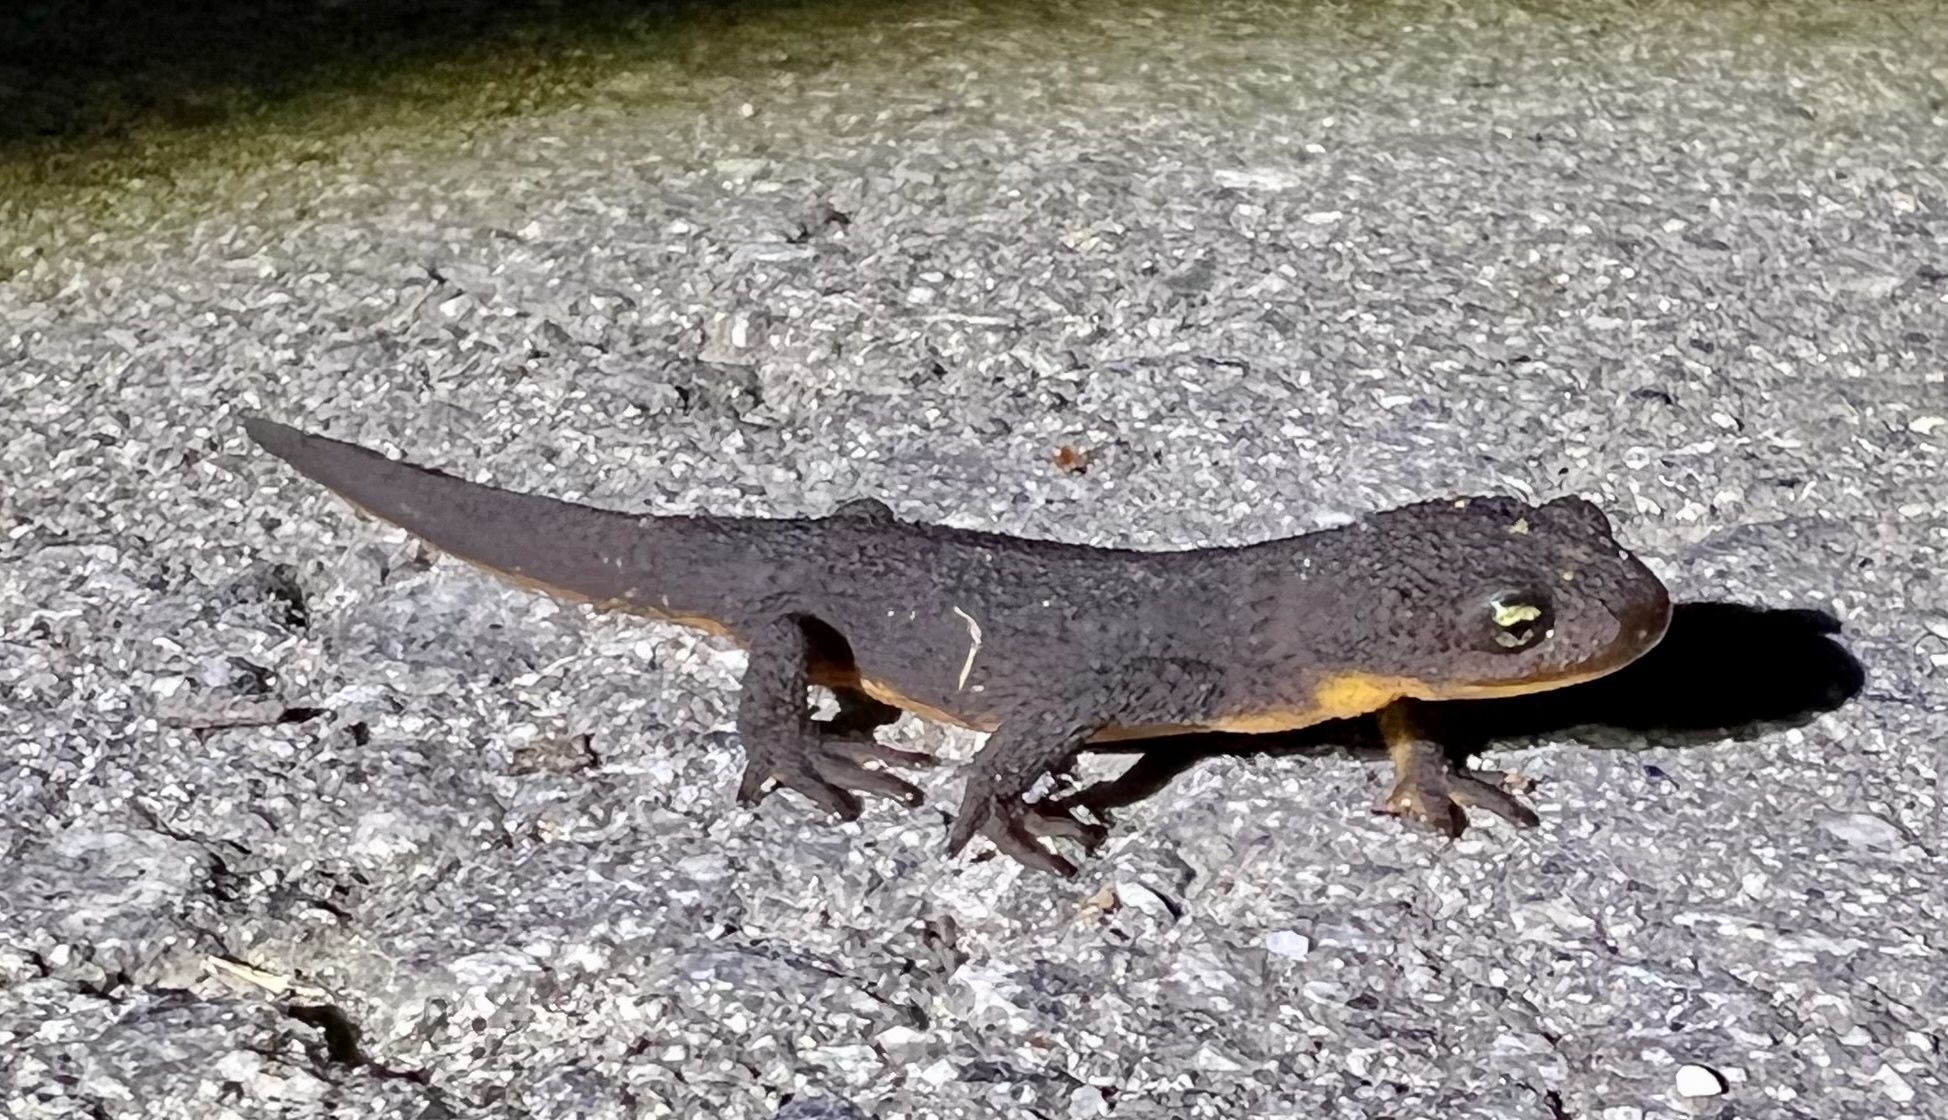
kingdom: Animalia
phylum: Chordata
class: Amphibia
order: Caudata
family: Salamandridae
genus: Taricha
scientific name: Taricha granulosa
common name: Roughskin newt
